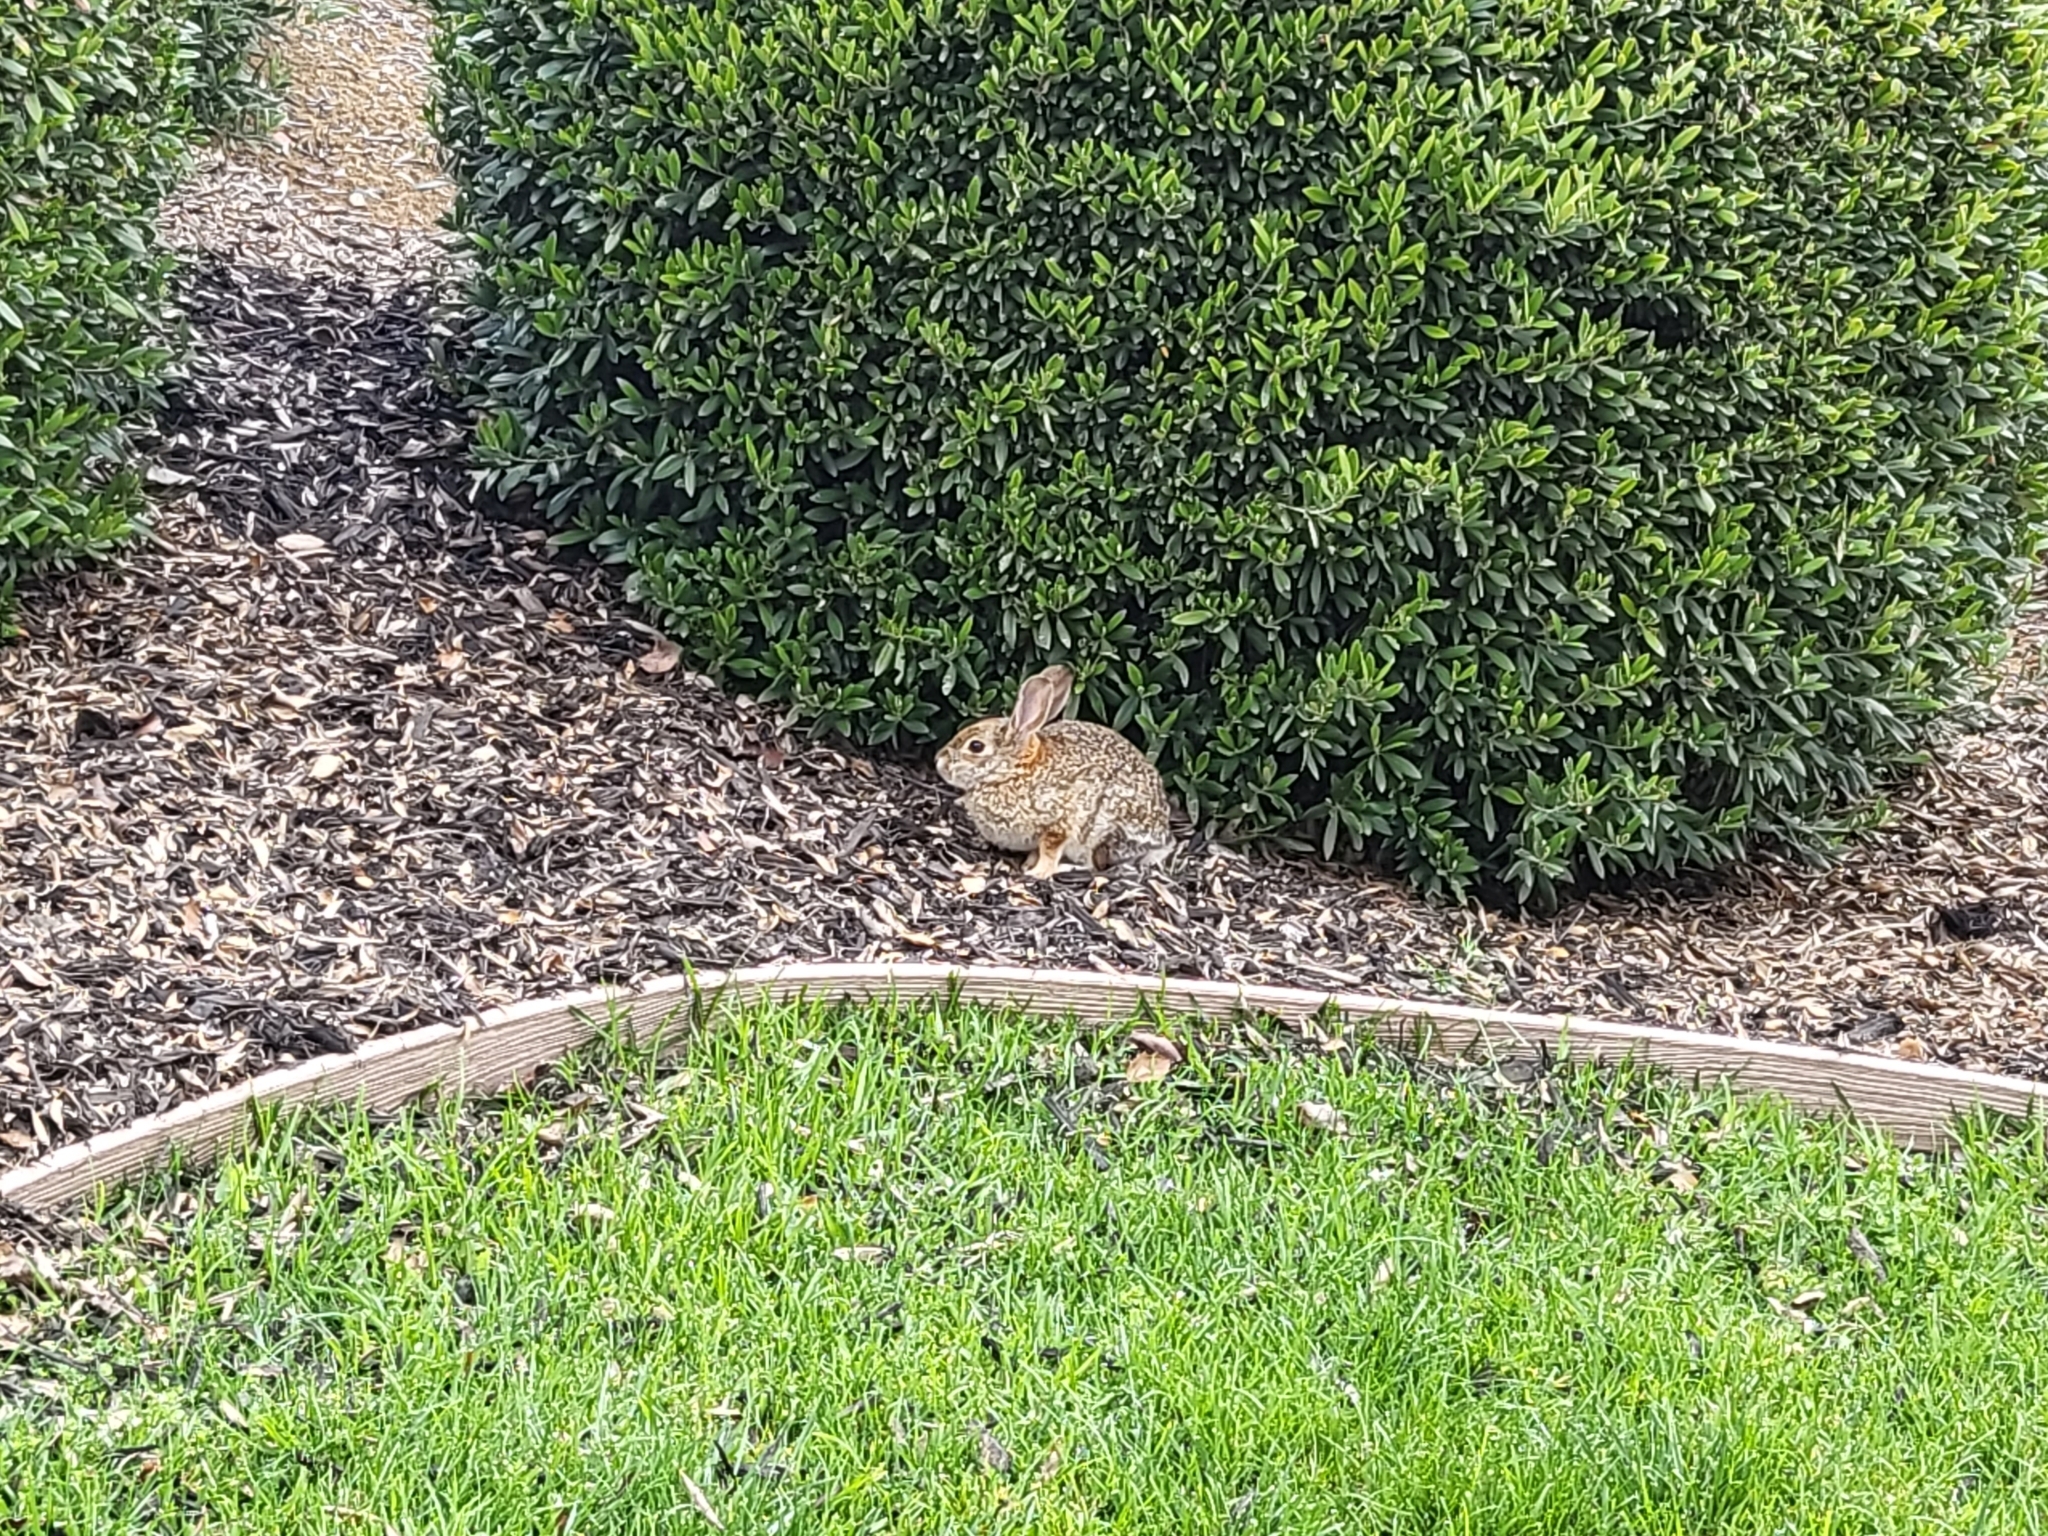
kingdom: Animalia
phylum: Chordata
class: Mammalia
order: Lagomorpha
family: Leporidae
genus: Sylvilagus
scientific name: Sylvilagus audubonii
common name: Desert cottontail
